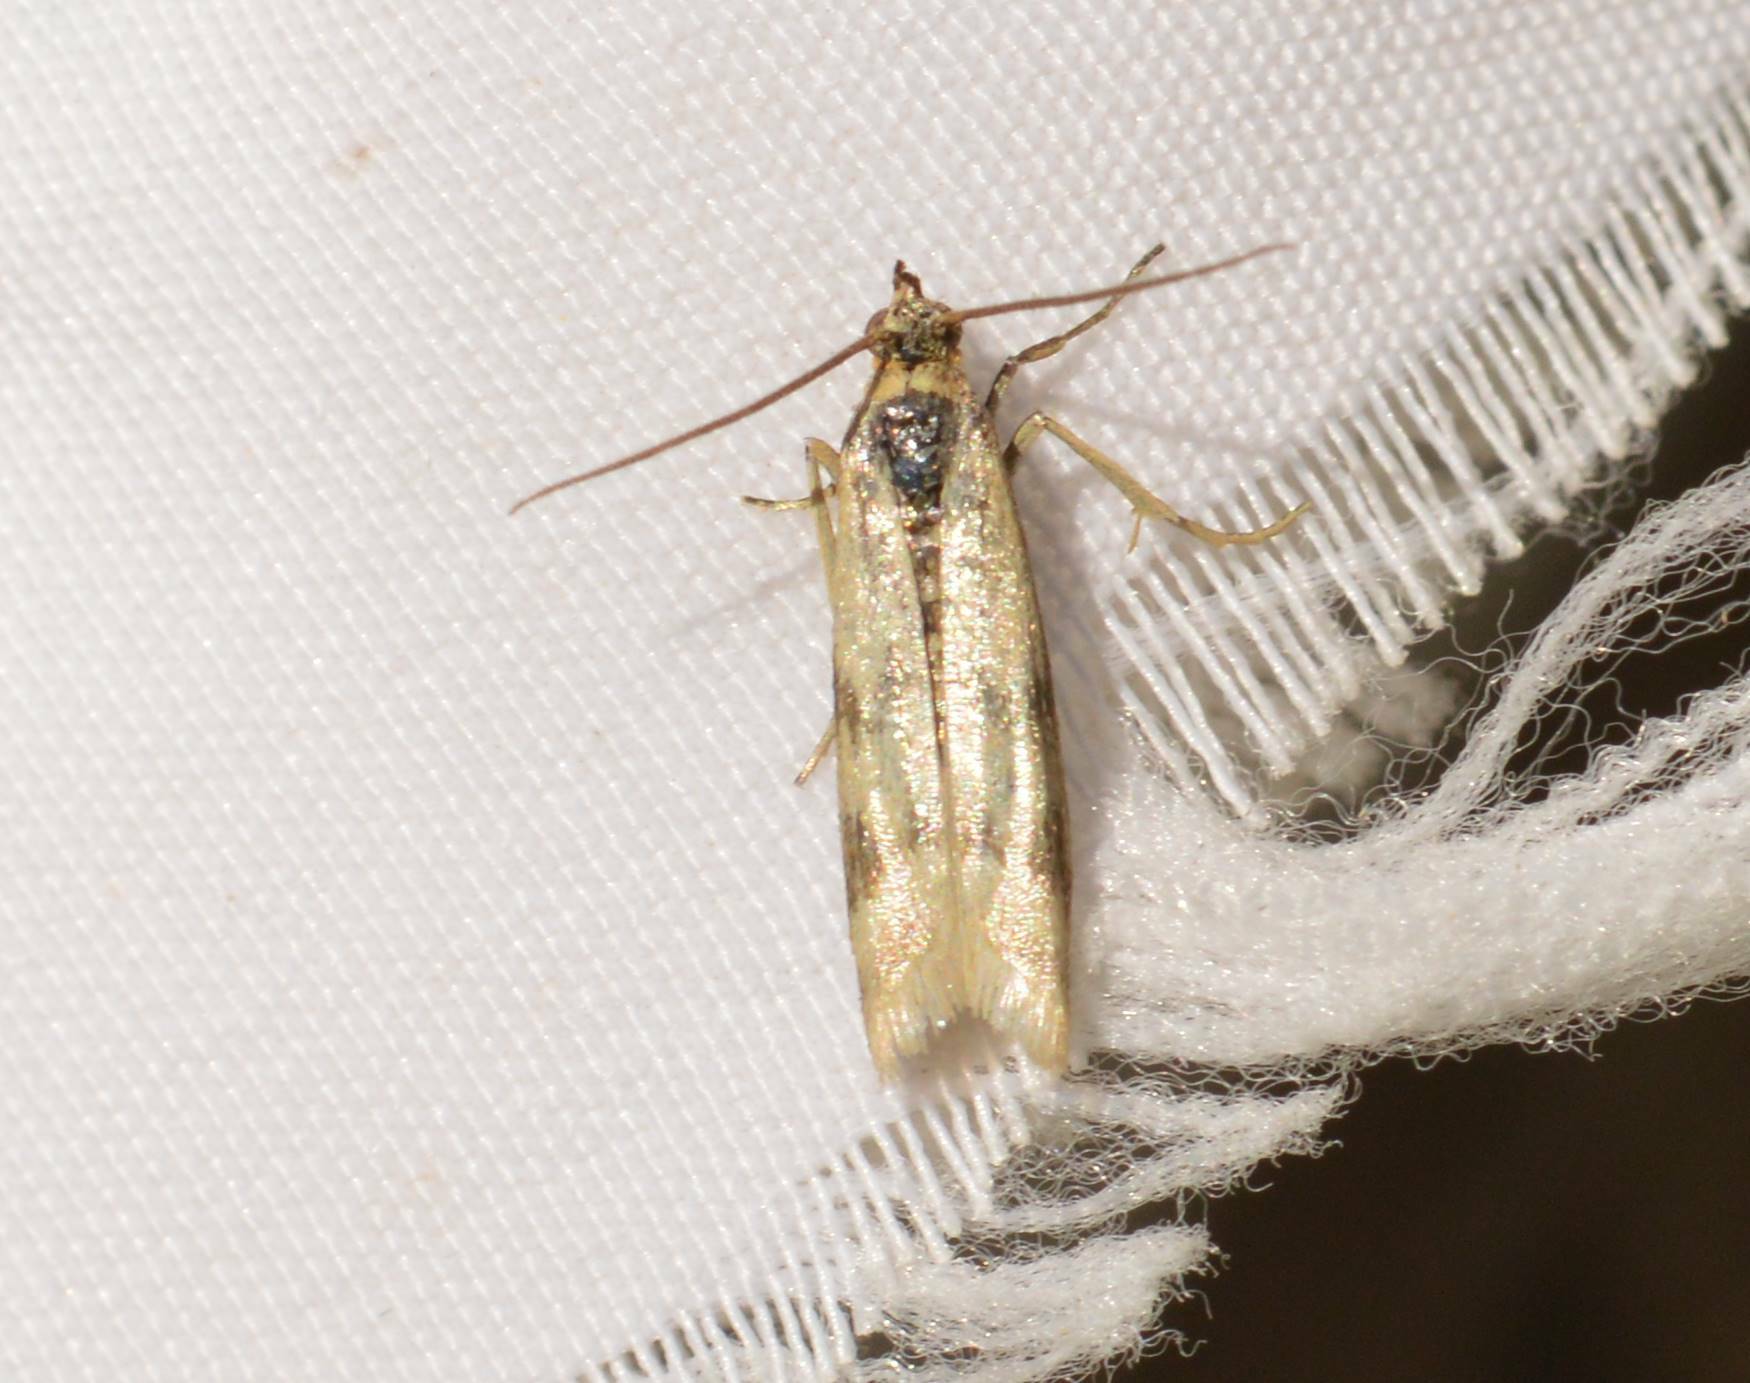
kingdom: Animalia
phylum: Arthropoda
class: Insecta
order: Lepidoptera
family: Pyralidae
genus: Homoeosoma
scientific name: Homoeosoma sinuella
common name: Twin-barred knot-horn
